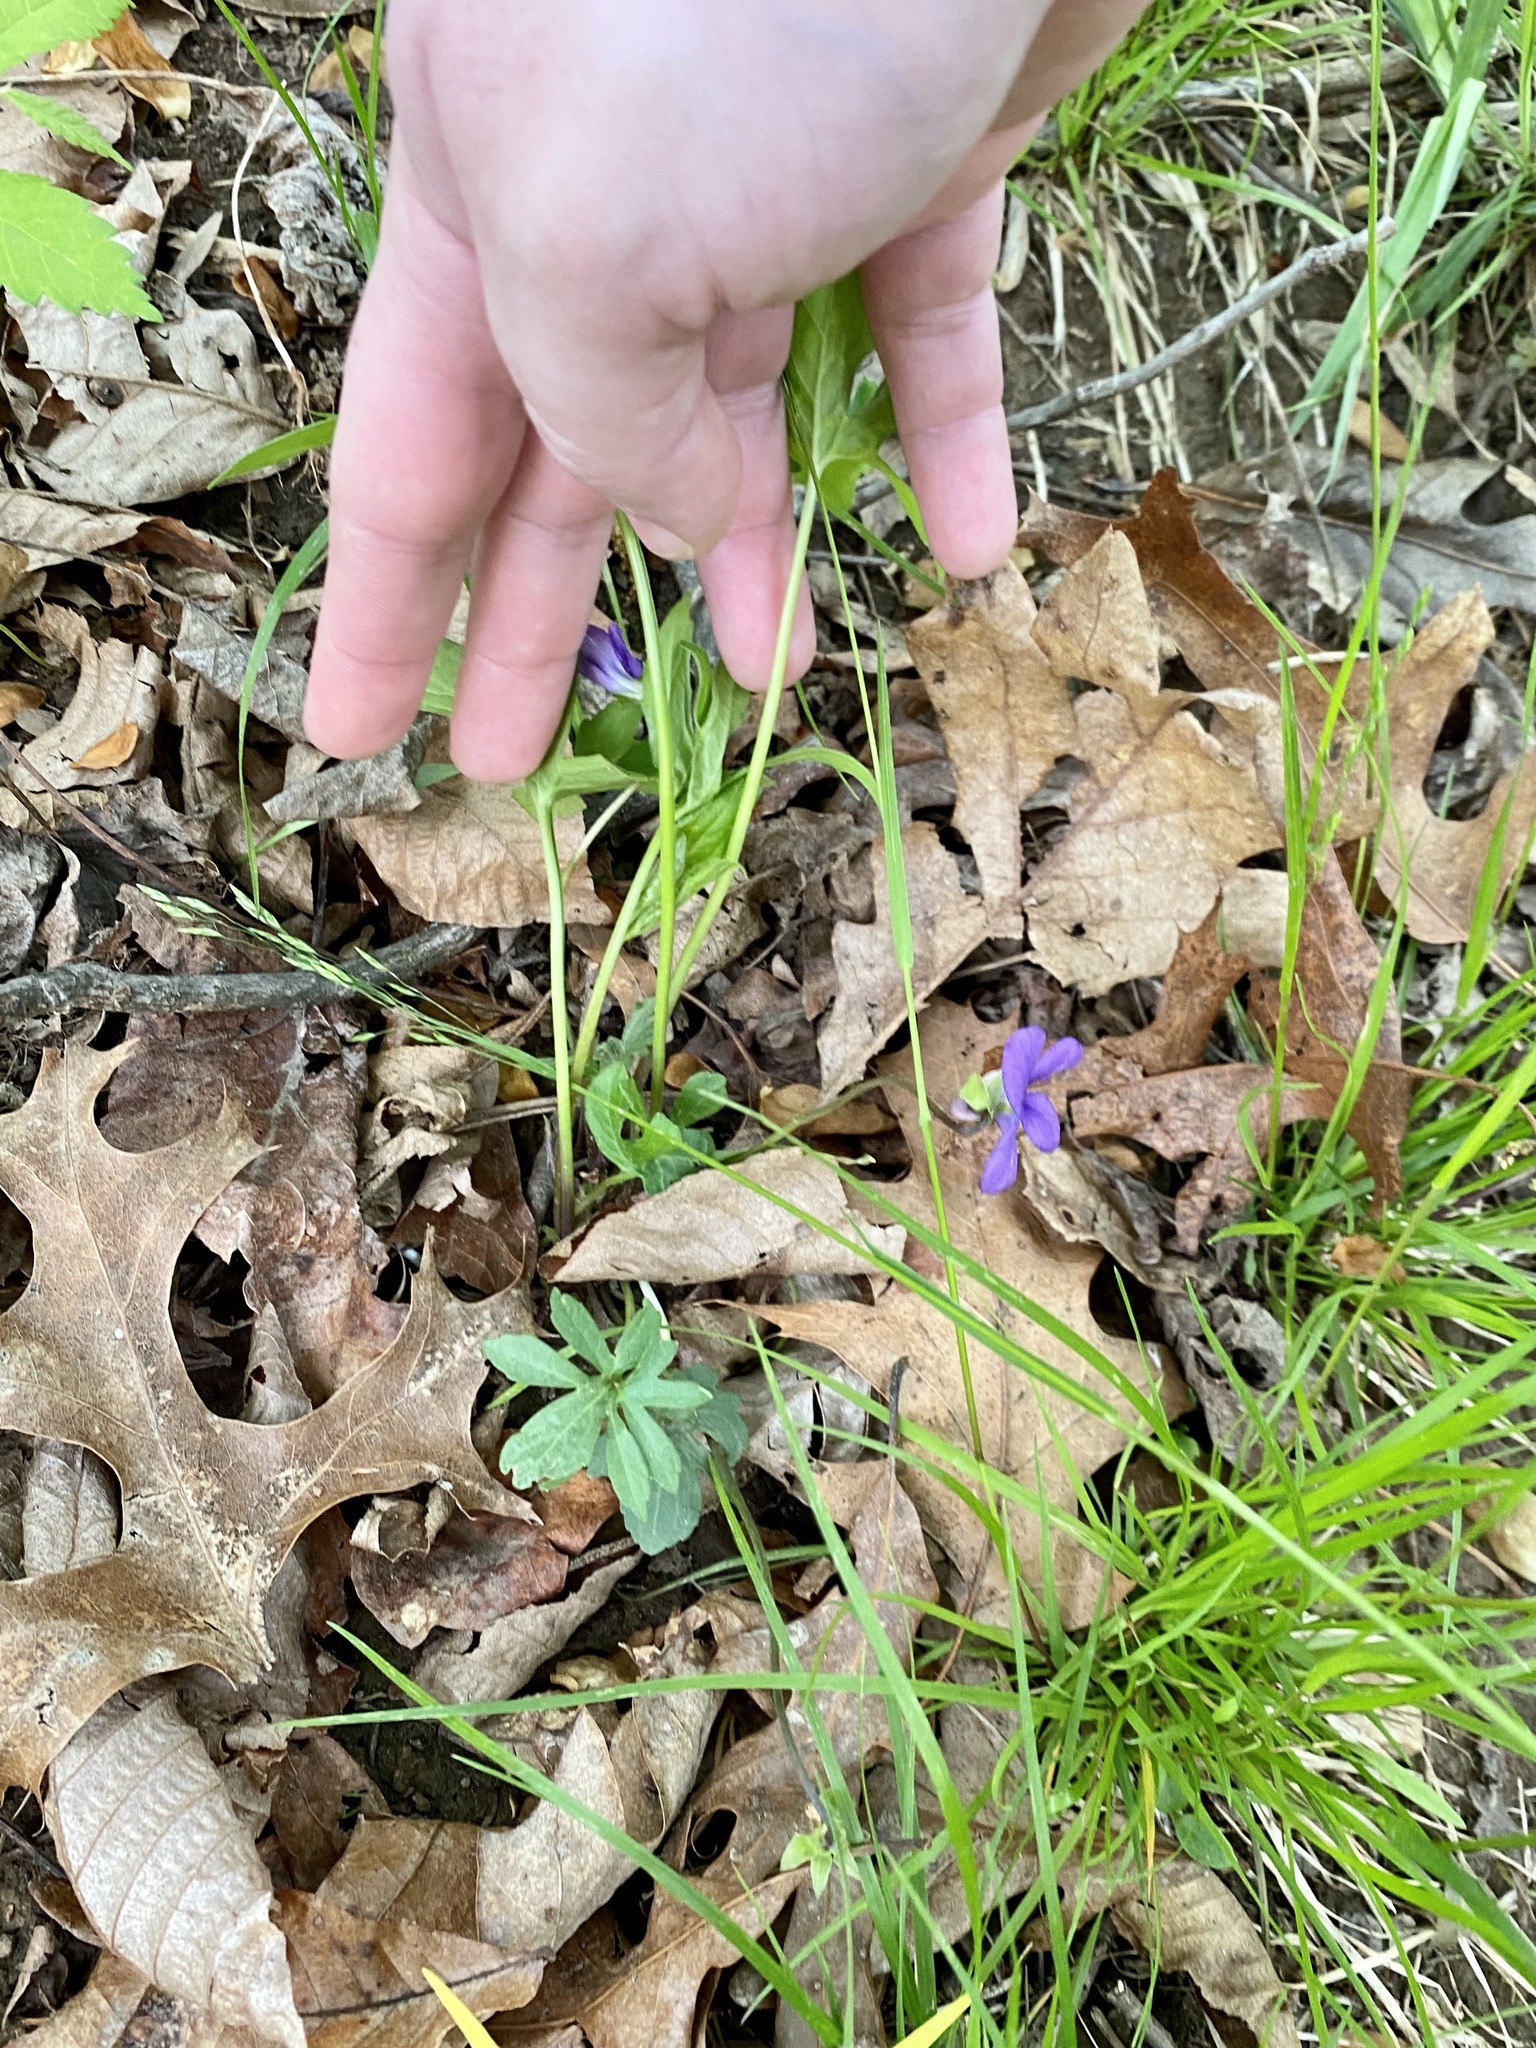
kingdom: Plantae
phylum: Tracheophyta
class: Magnoliopsida
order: Malpighiales
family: Violaceae
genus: Viola
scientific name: Viola palmata
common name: Early blue violet
